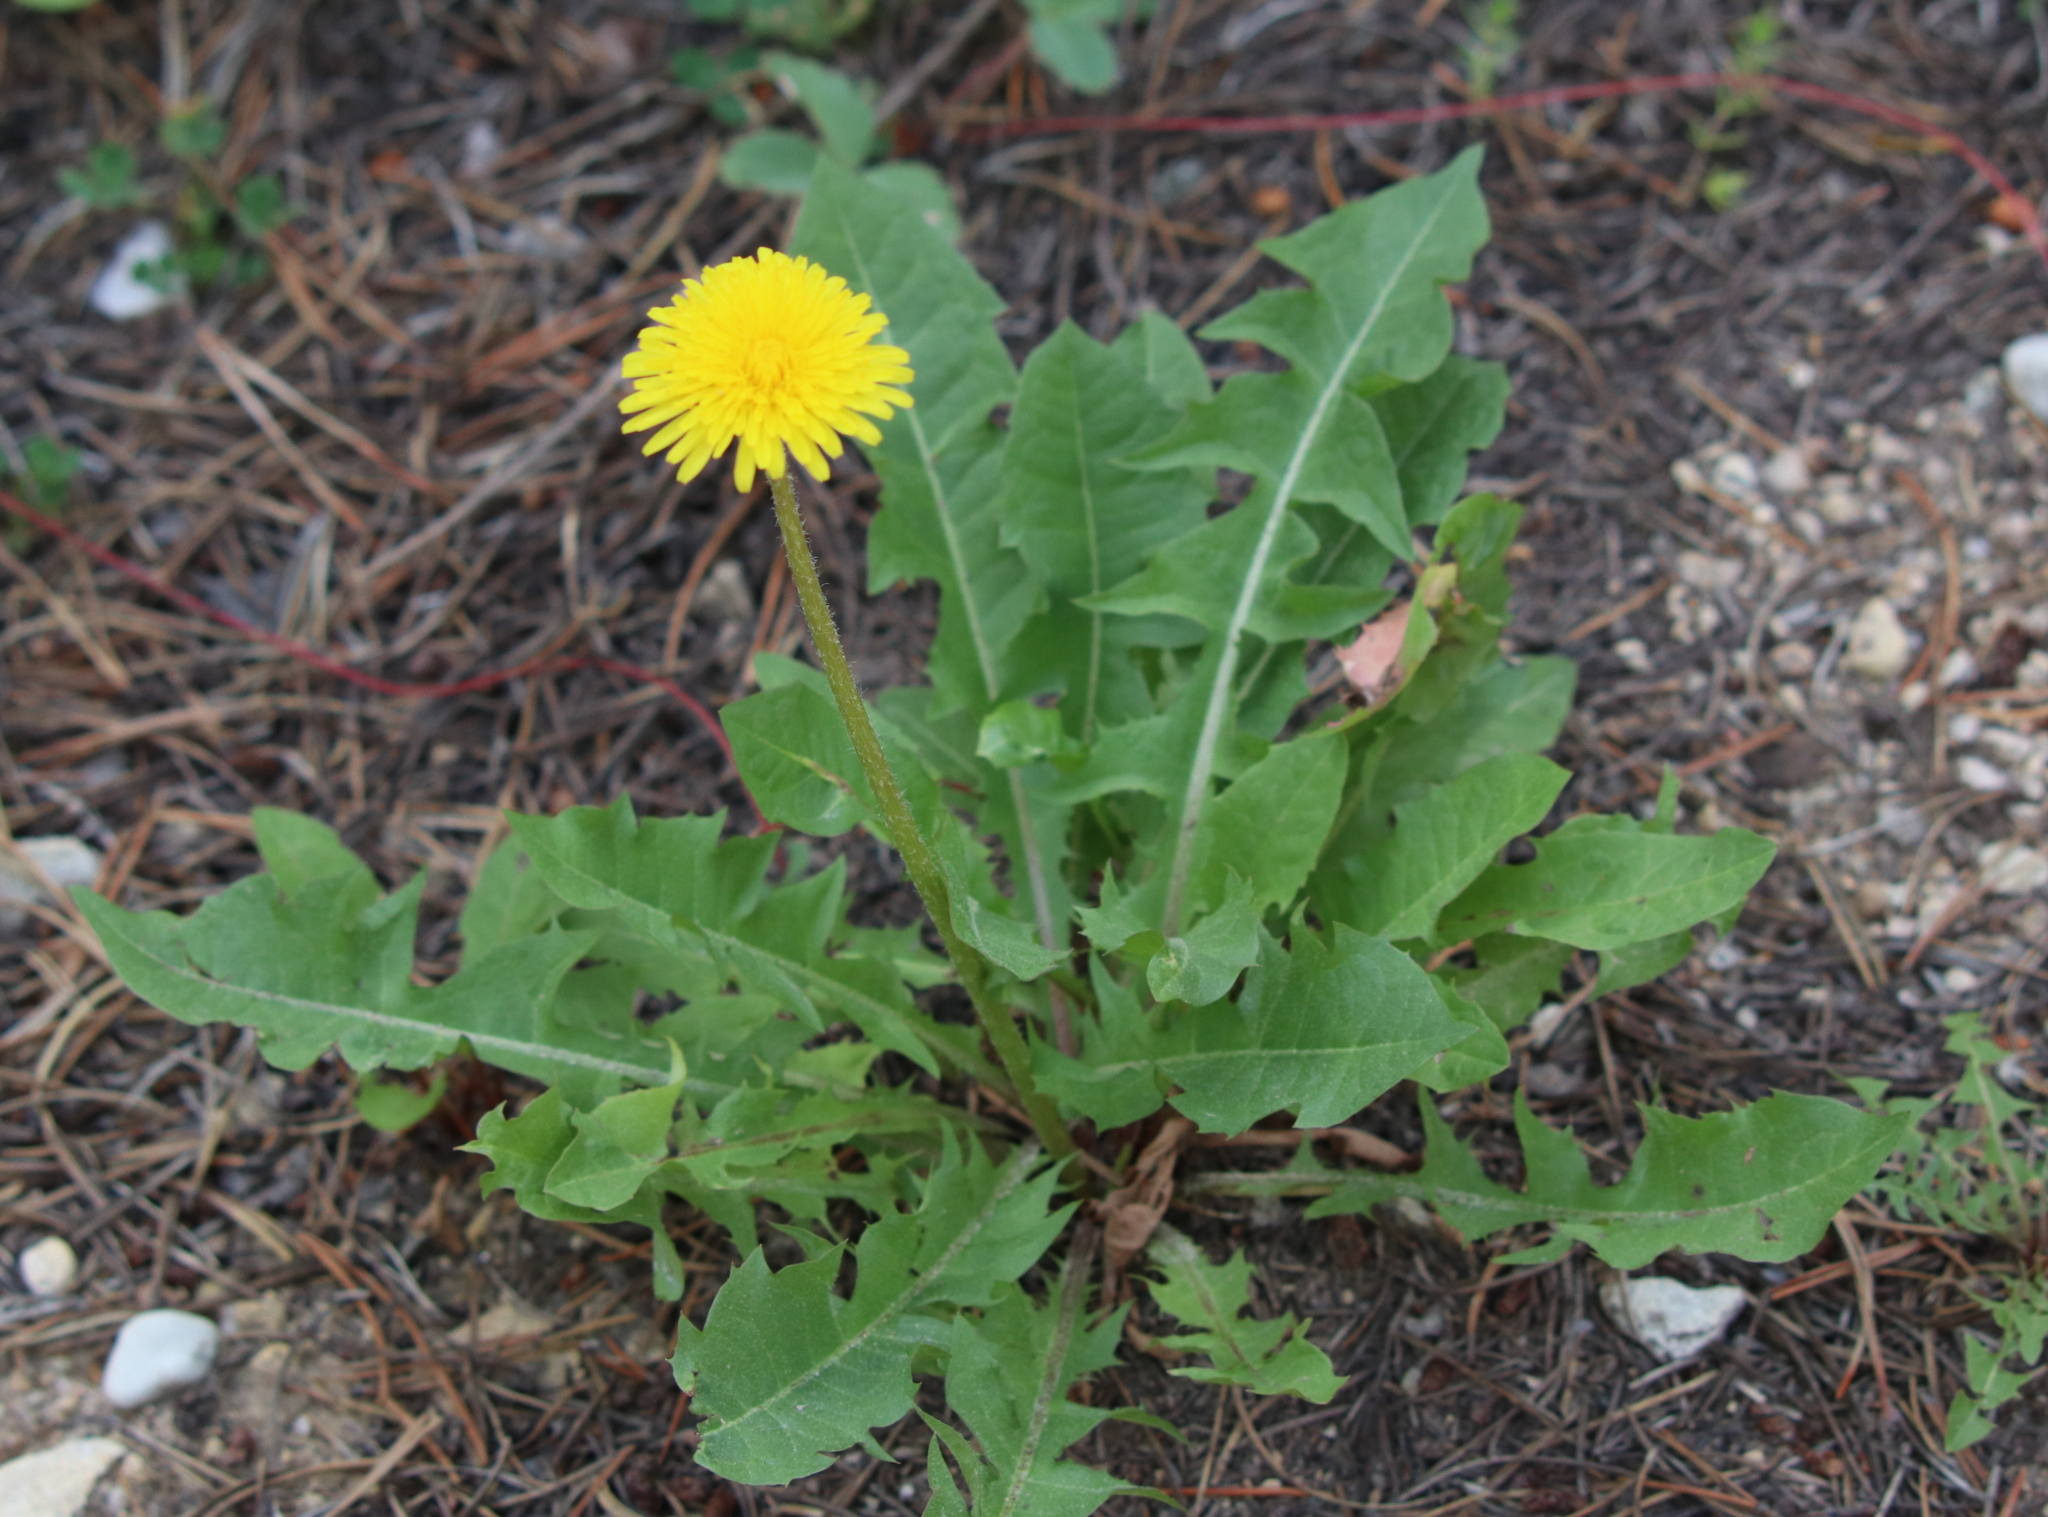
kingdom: Plantae
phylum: Tracheophyta
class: Magnoliopsida
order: Asterales
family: Asteraceae
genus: Taraxacum
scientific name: Taraxacum officinale
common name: Common dandelion
